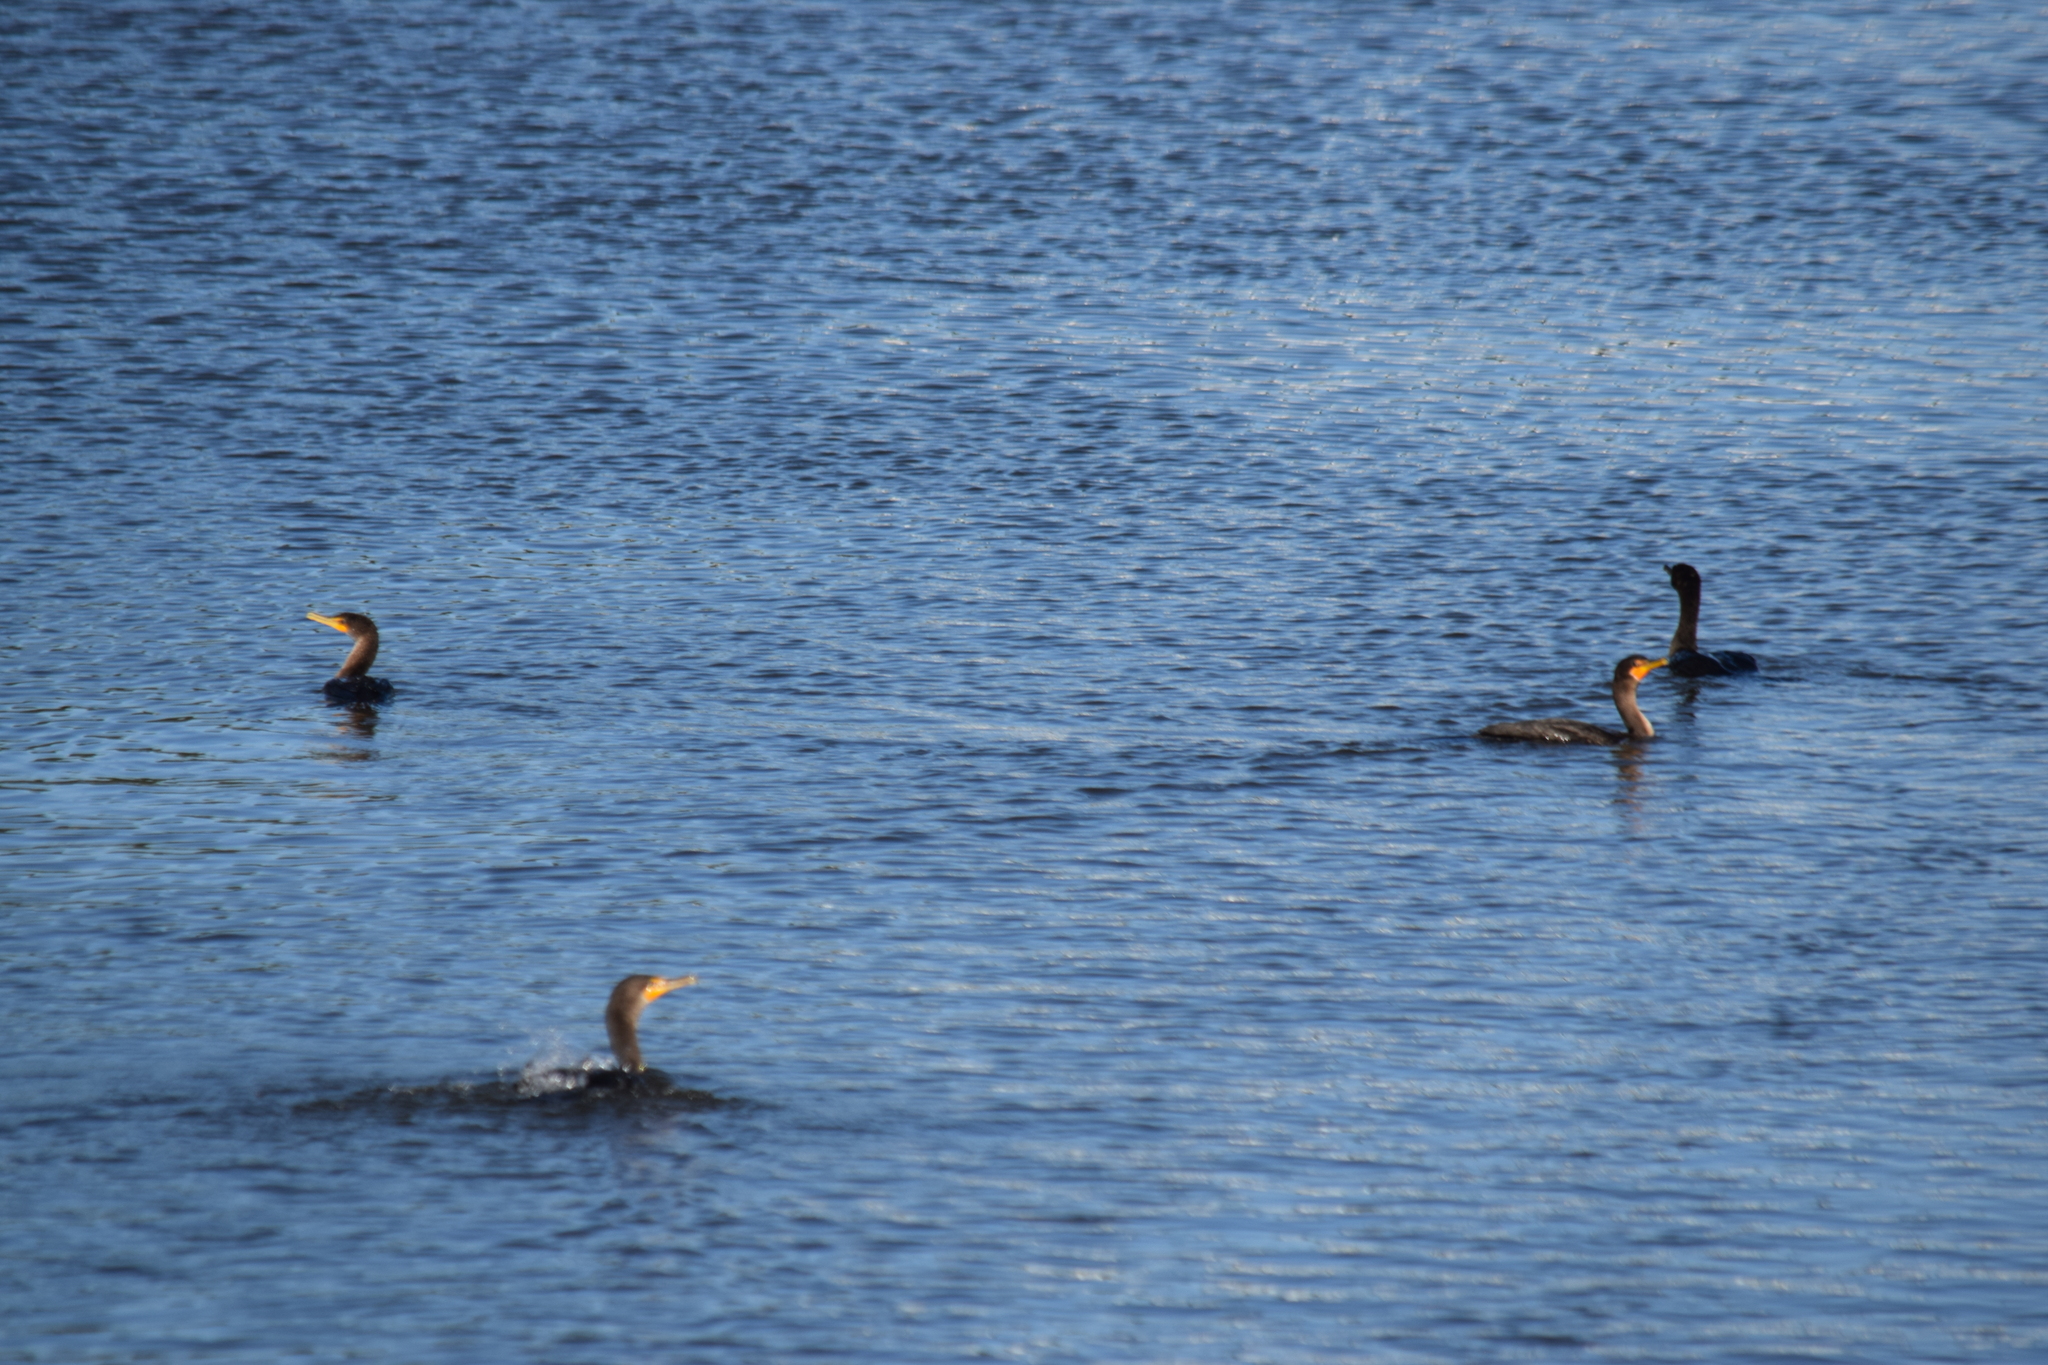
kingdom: Animalia
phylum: Chordata
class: Aves
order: Suliformes
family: Phalacrocoracidae
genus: Phalacrocorax
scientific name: Phalacrocorax auritus
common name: Double-crested cormorant
